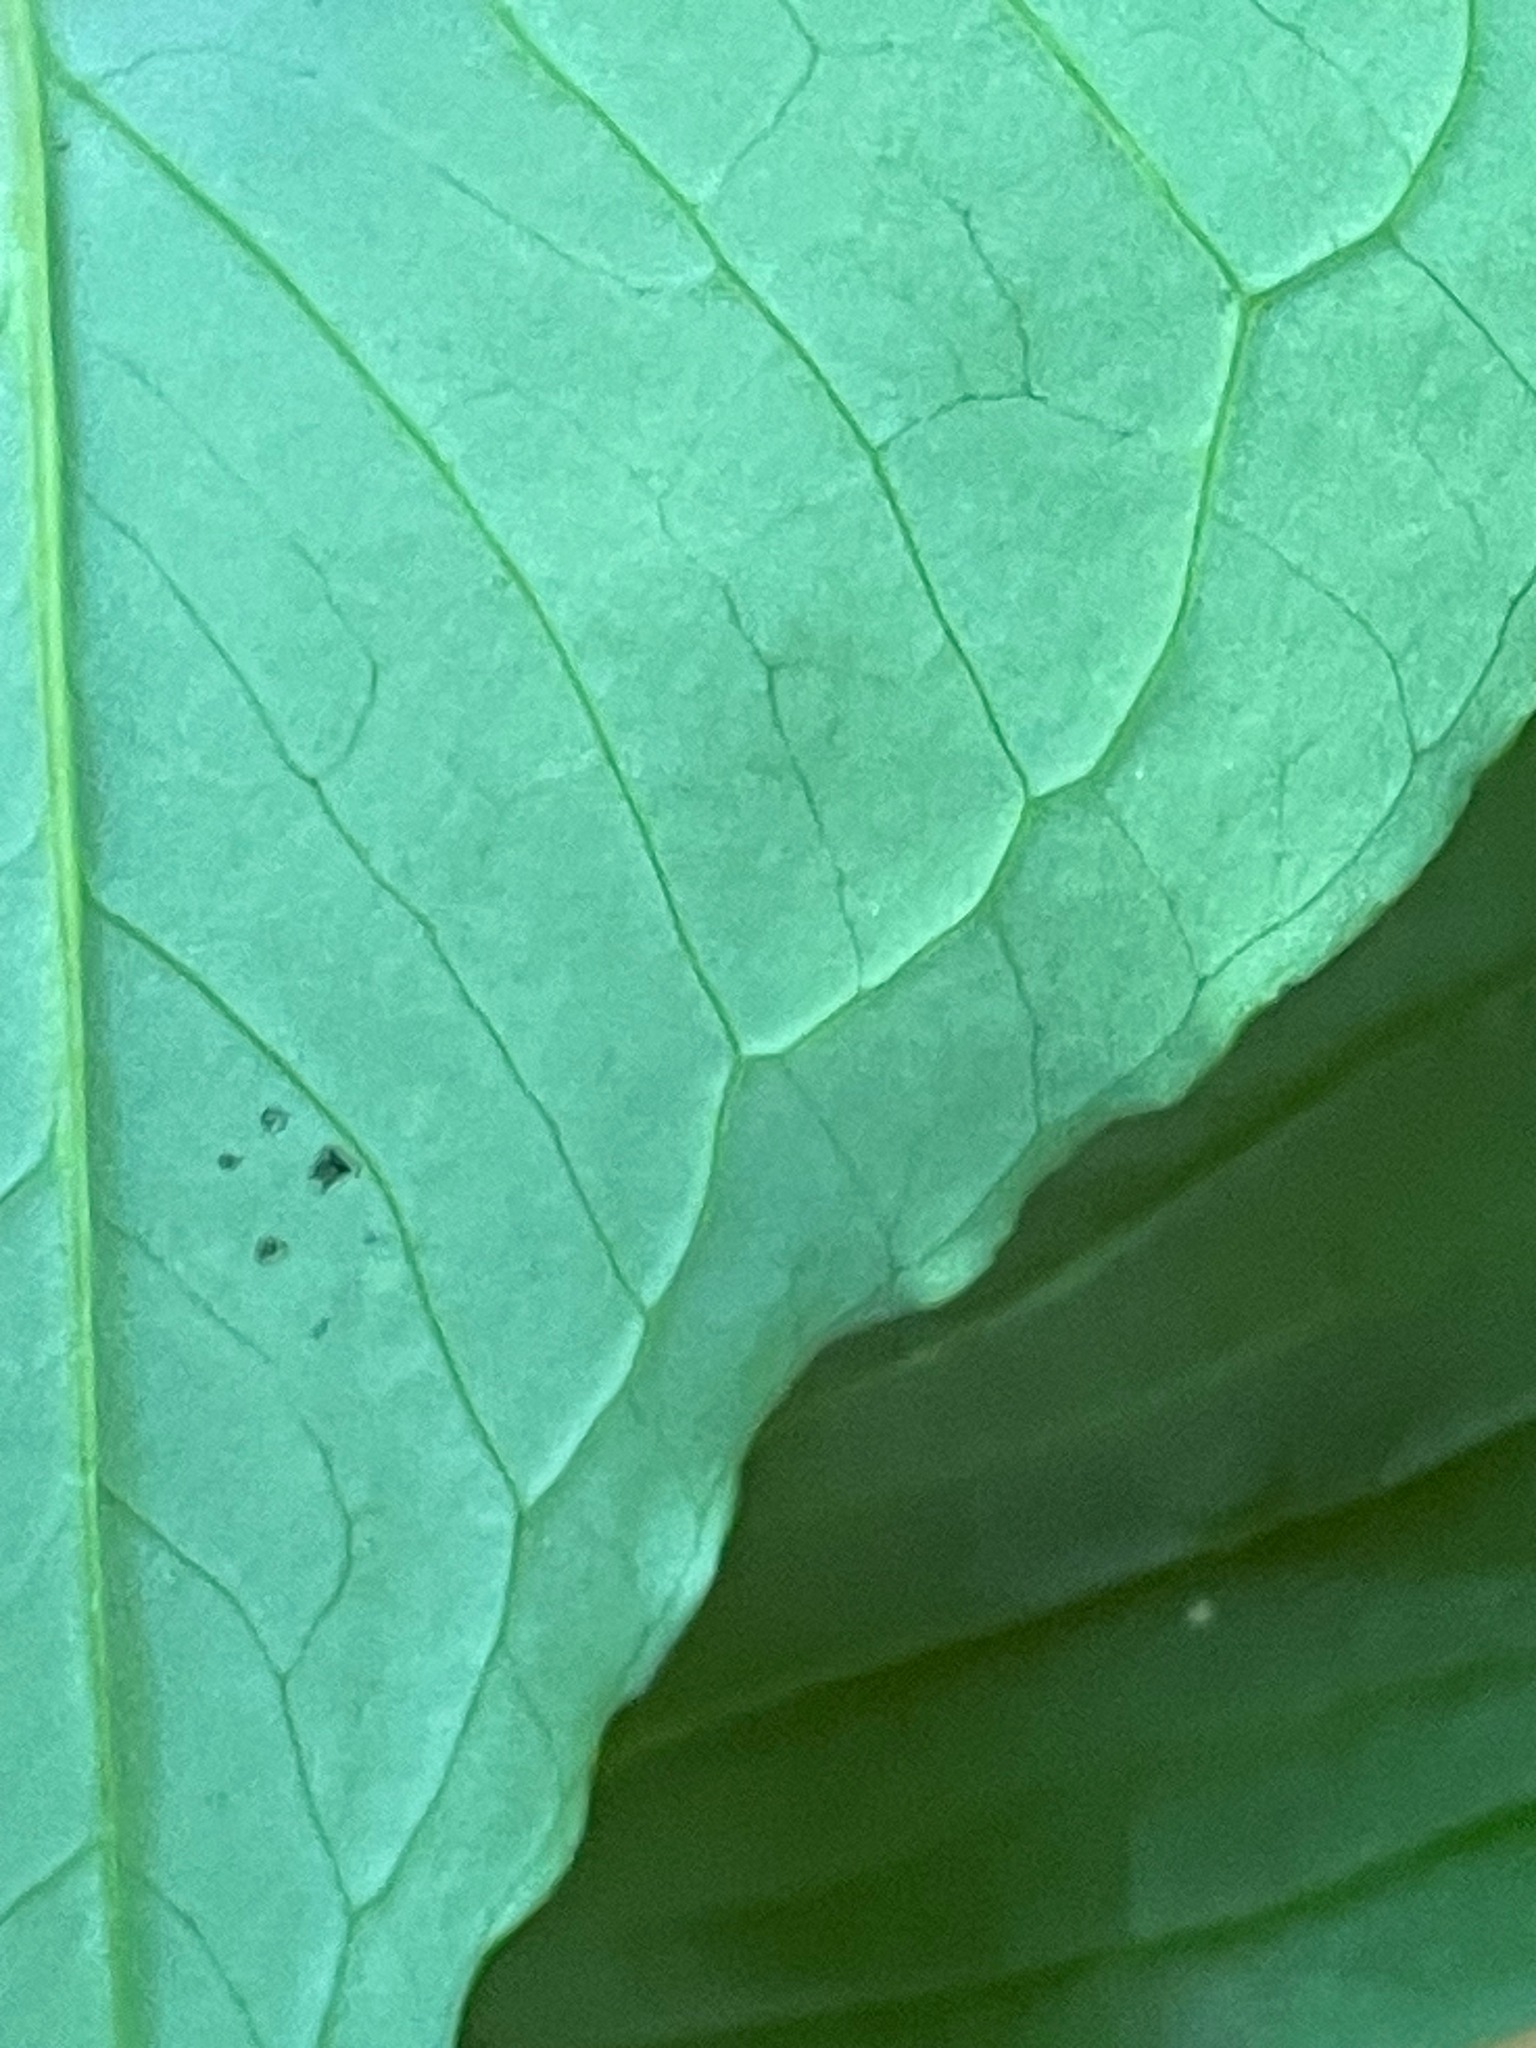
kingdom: Plantae
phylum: Tracheophyta
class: Liliopsida
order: Alismatales
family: Araceae
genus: Arisaema
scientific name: Arisaema triphyllum
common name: Jack-in-the-pulpit
